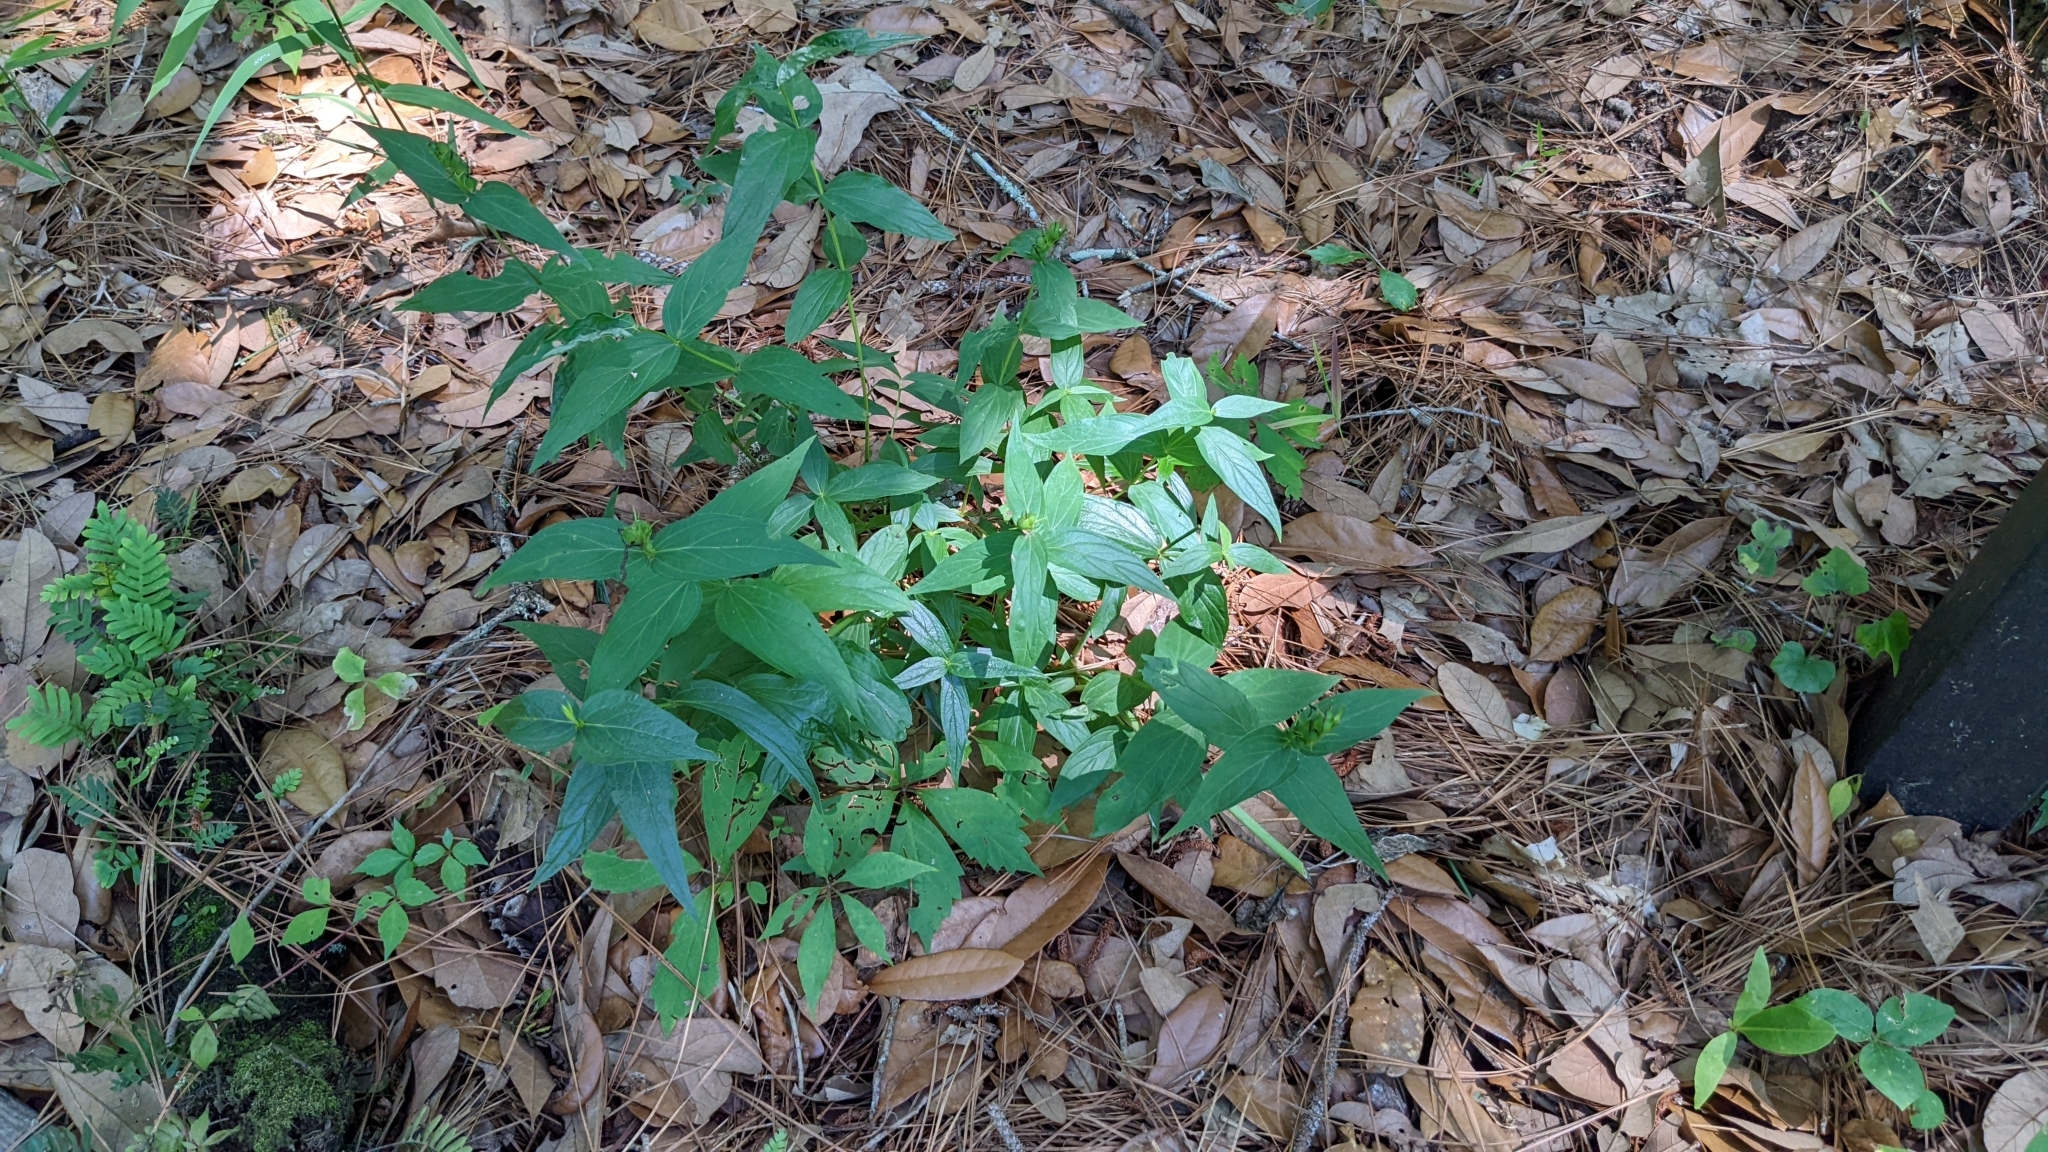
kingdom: Plantae
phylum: Tracheophyta
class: Magnoliopsida
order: Gentianales
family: Loganiaceae
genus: Spigelia
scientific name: Spigelia marilandica
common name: Indian-pink
